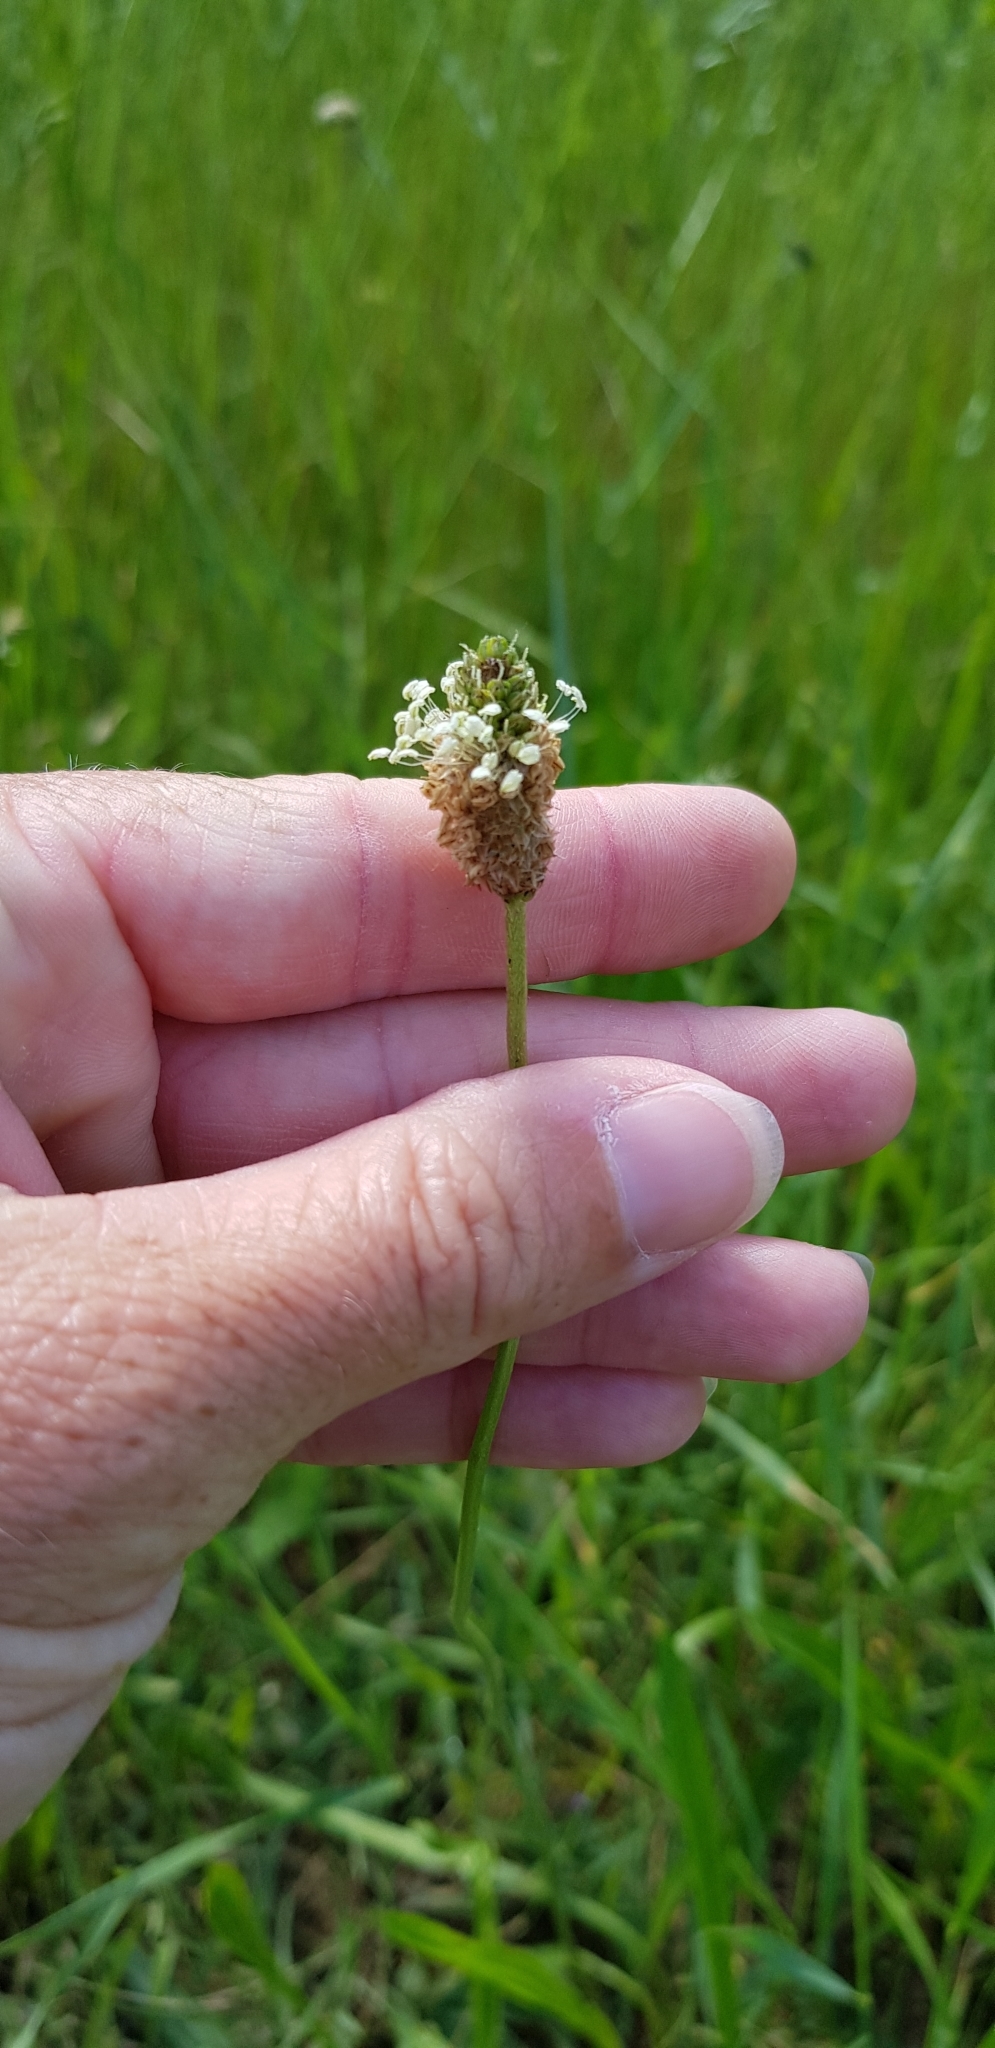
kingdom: Plantae
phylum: Tracheophyta
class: Magnoliopsida
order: Lamiales
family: Plantaginaceae
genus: Plantago
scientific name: Plantago lanceolata
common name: Ribwort plantain
